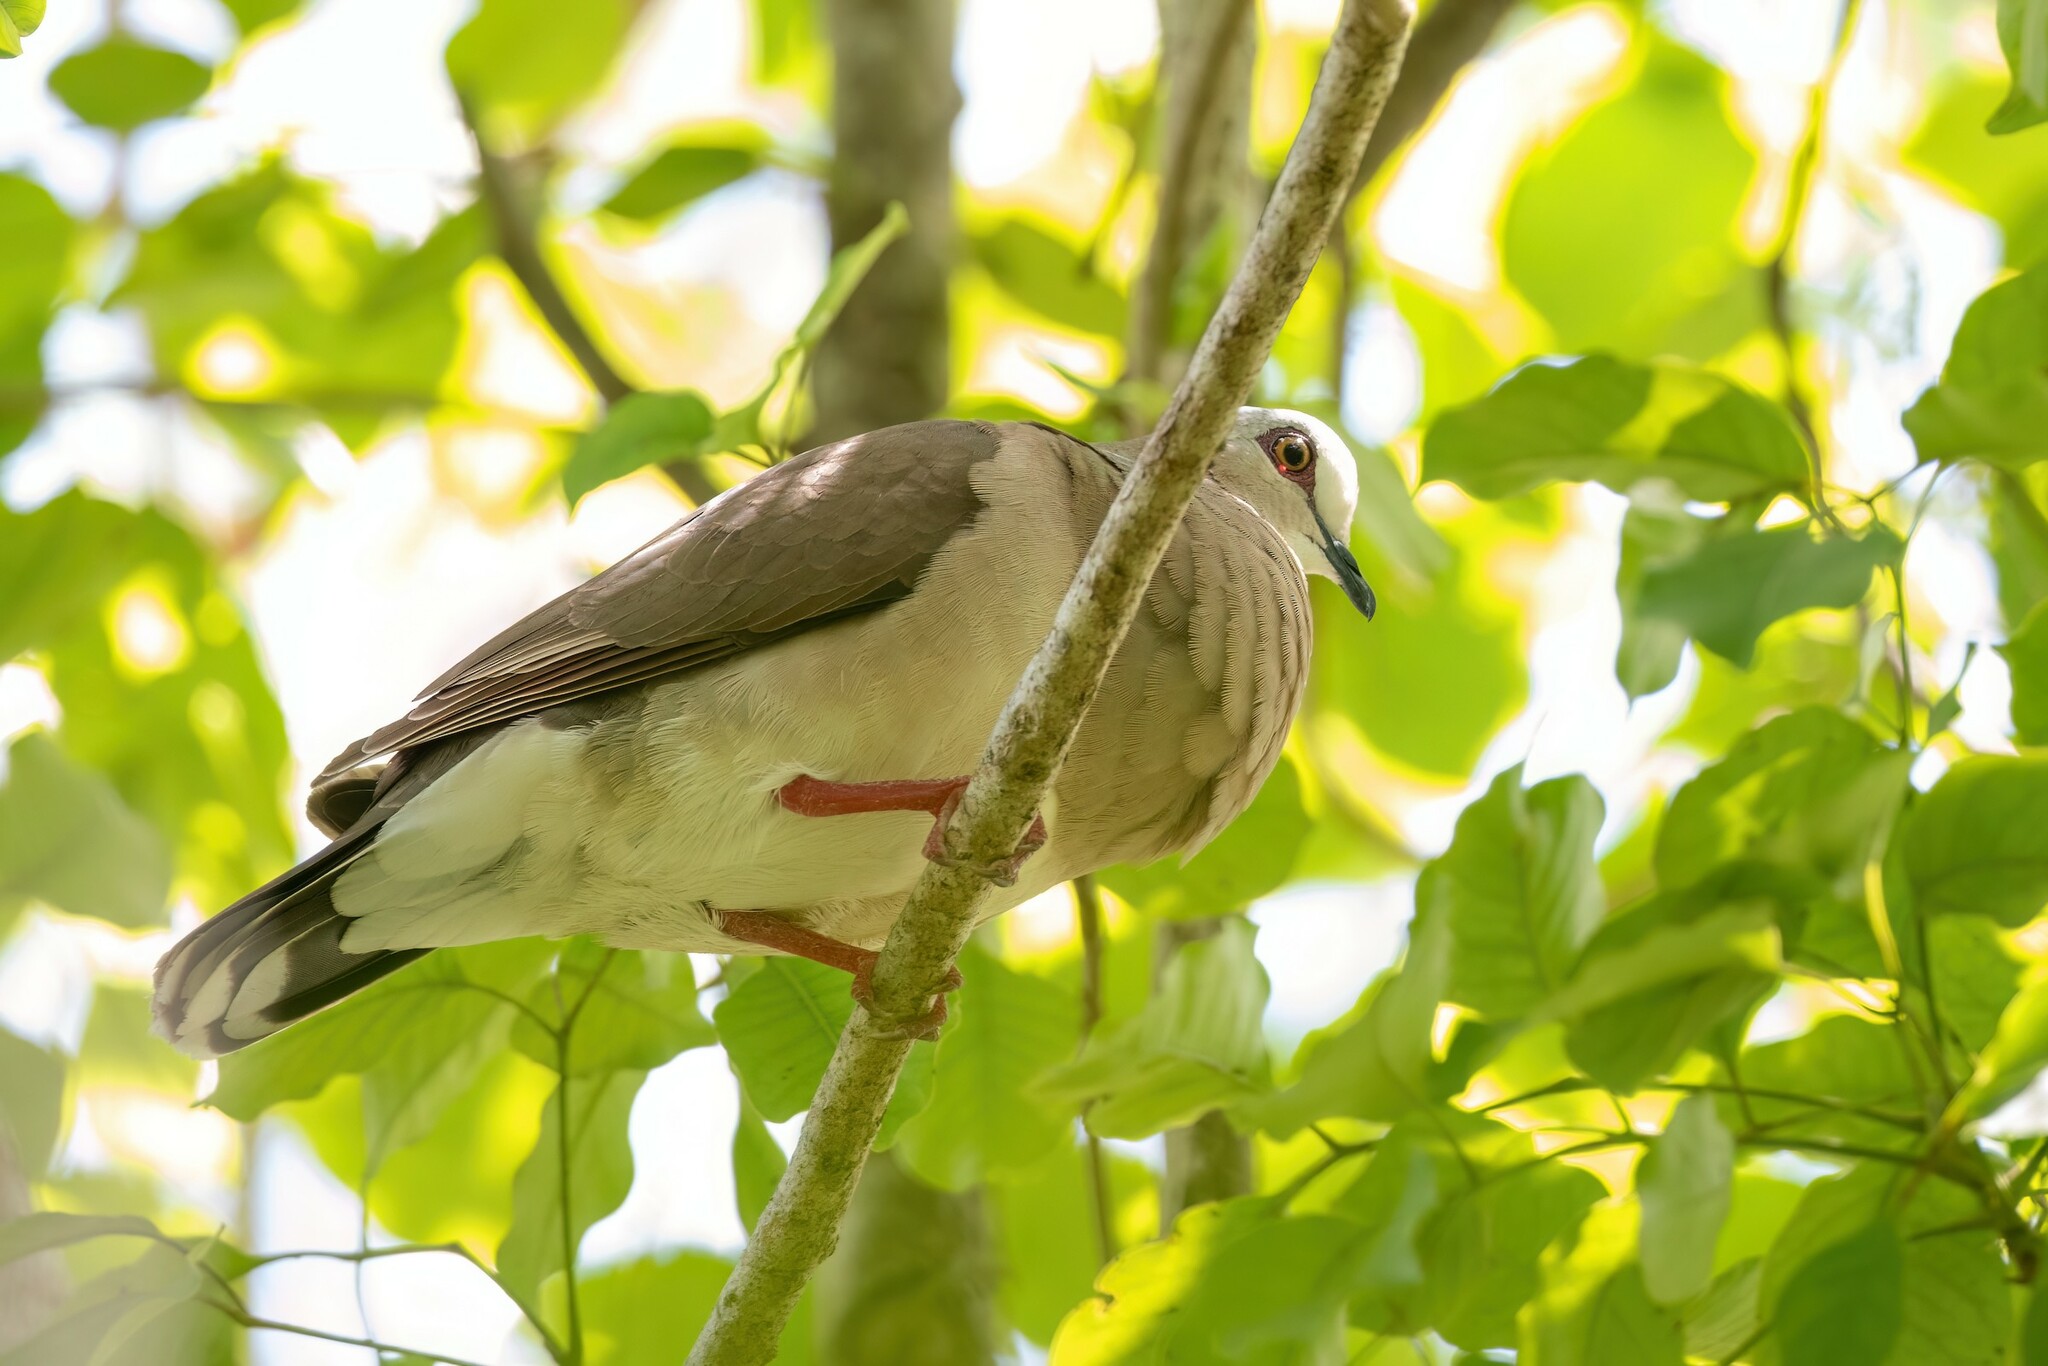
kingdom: Animalia
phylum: Chordata
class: Aves
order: Columbiformes
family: Columbidae
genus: Leptotila
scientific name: Leptotila jamaicensis
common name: Caribbean dove
